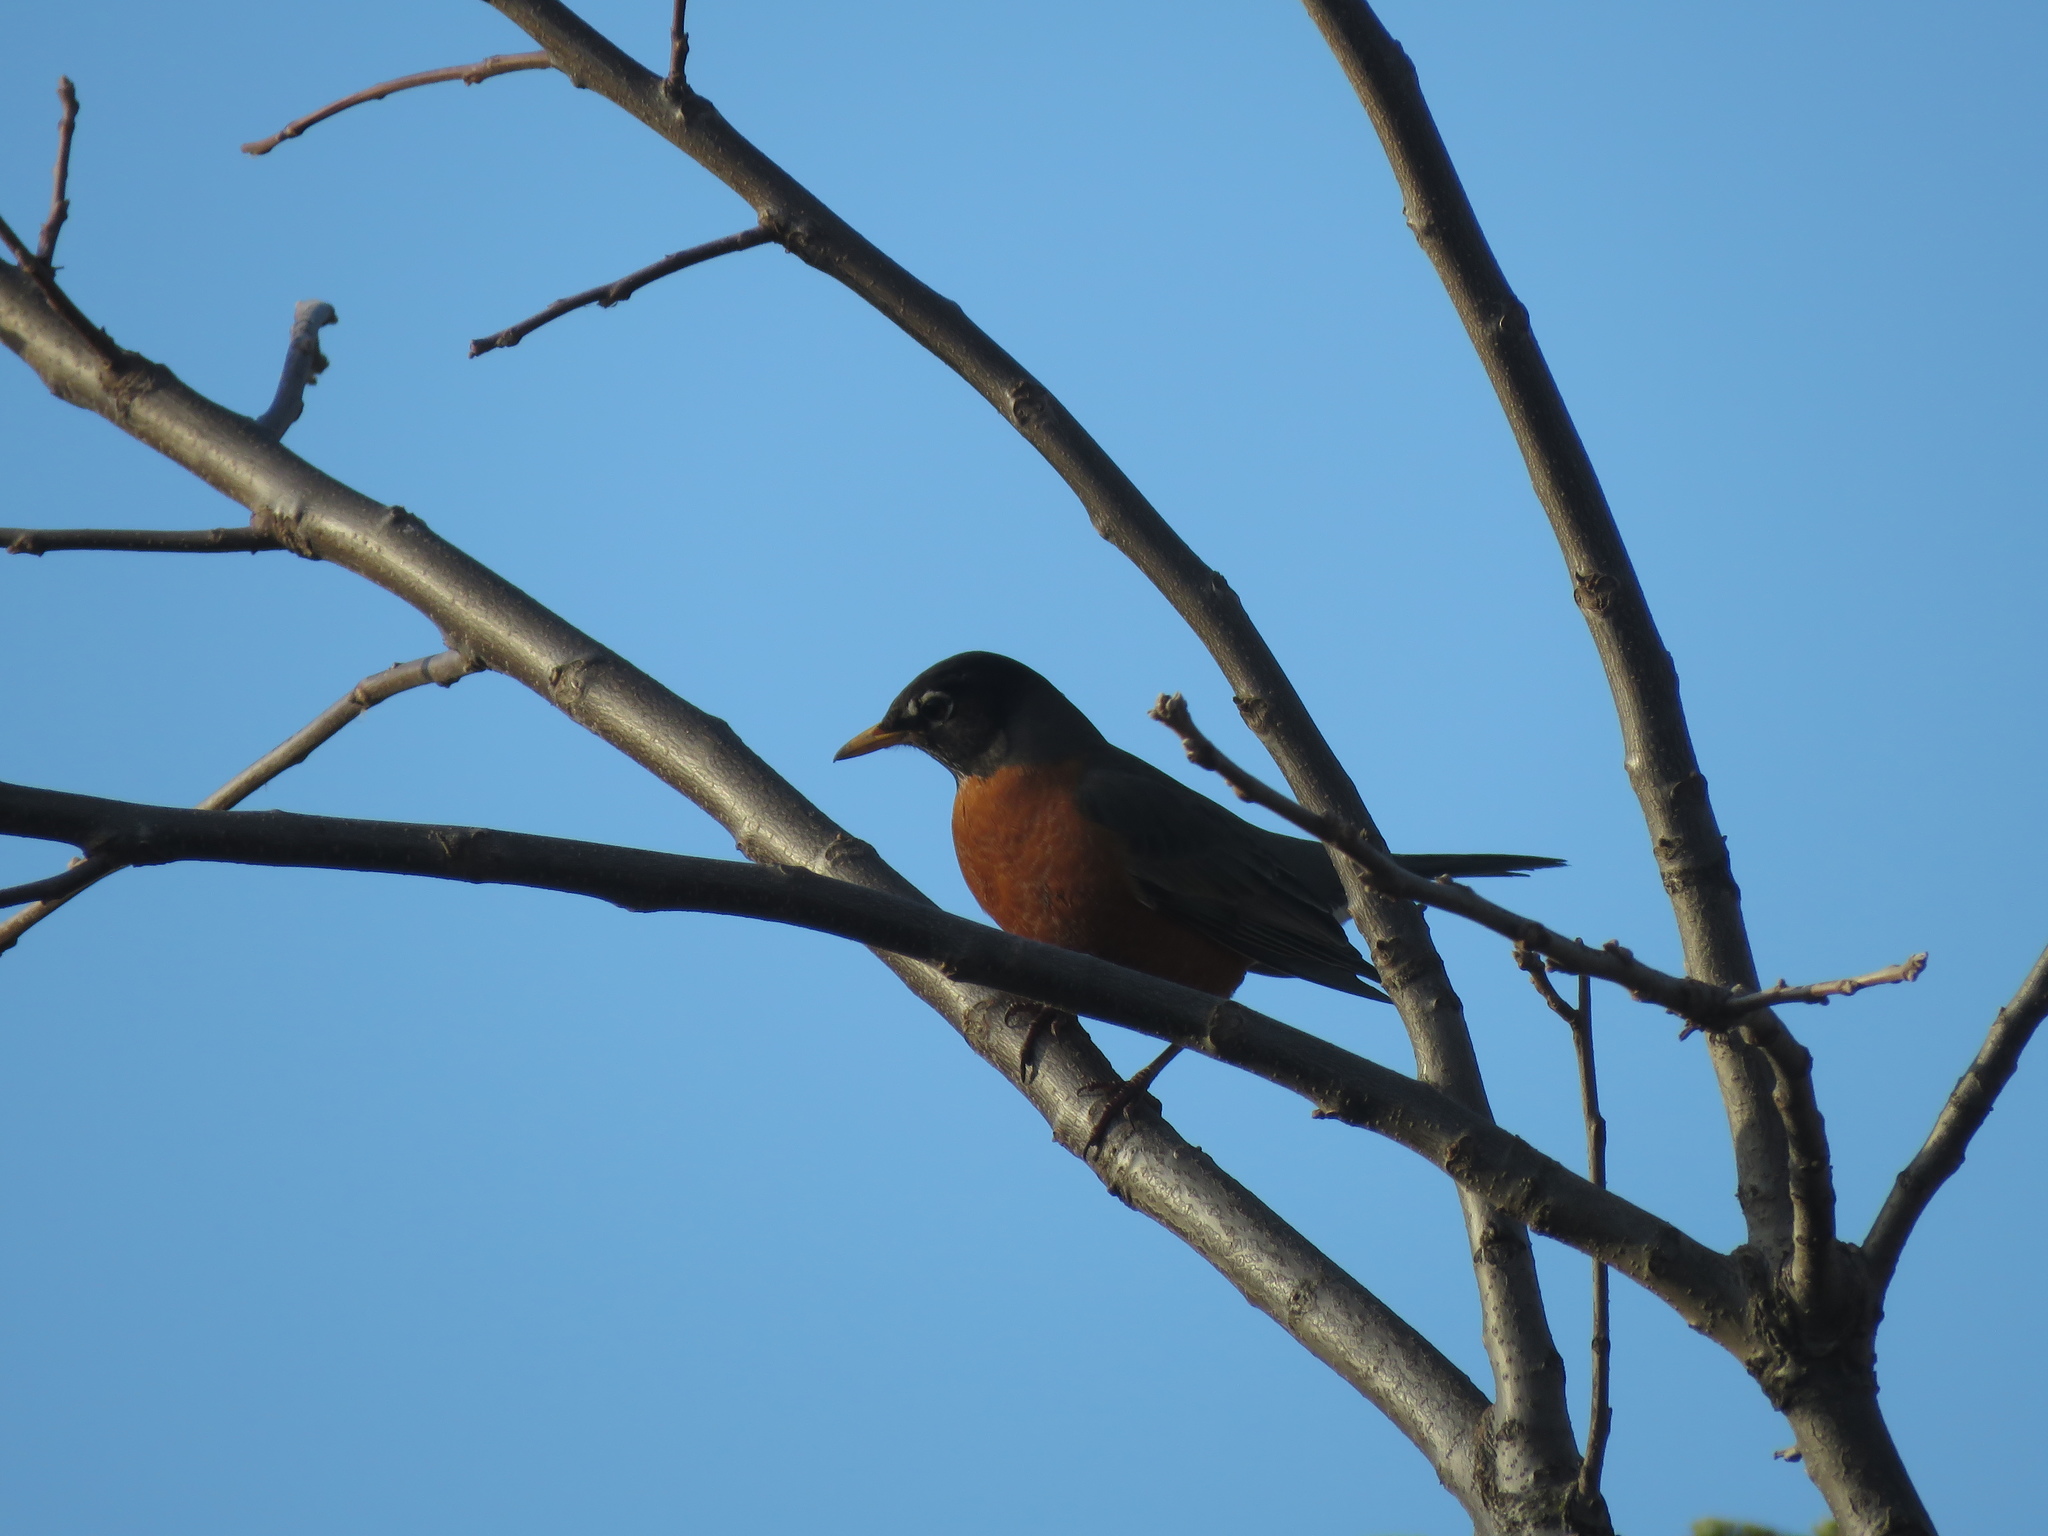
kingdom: Animalia
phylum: Chordata
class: Aves
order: Passeriformes
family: Turdidae
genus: Turdus
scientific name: Turdus migratorius
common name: American robin
